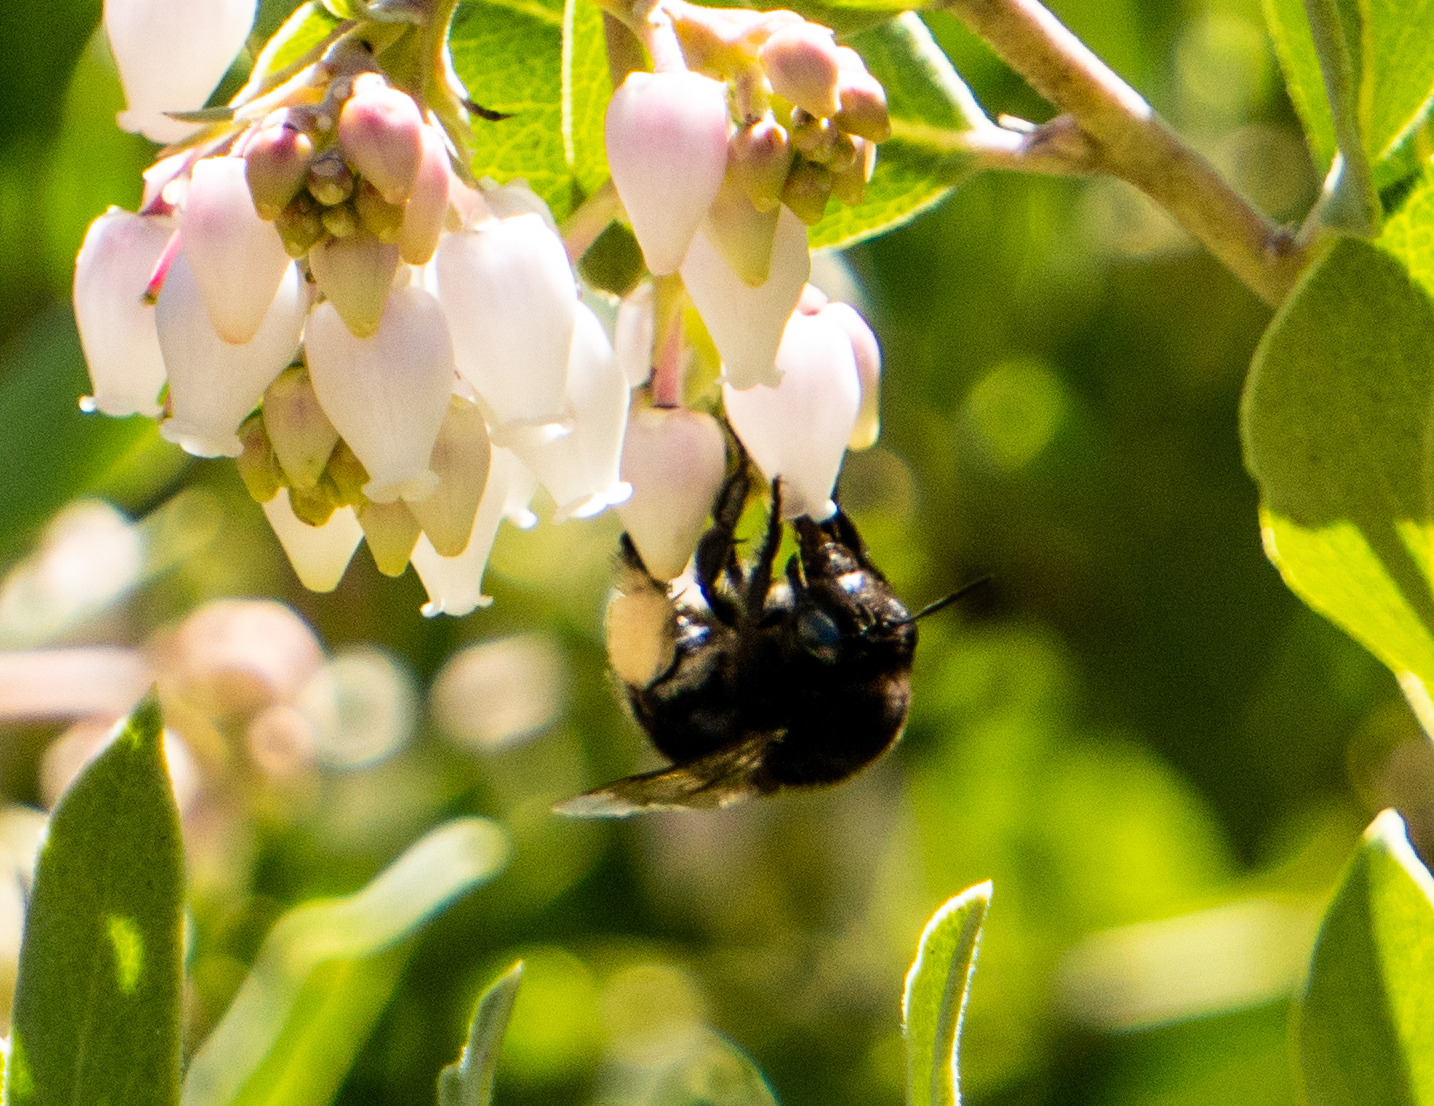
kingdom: Animalia
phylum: Arthropoda
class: Insecta
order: Hymenoptera
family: Apidae
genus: Habropoda
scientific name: Habropoda tristissima
